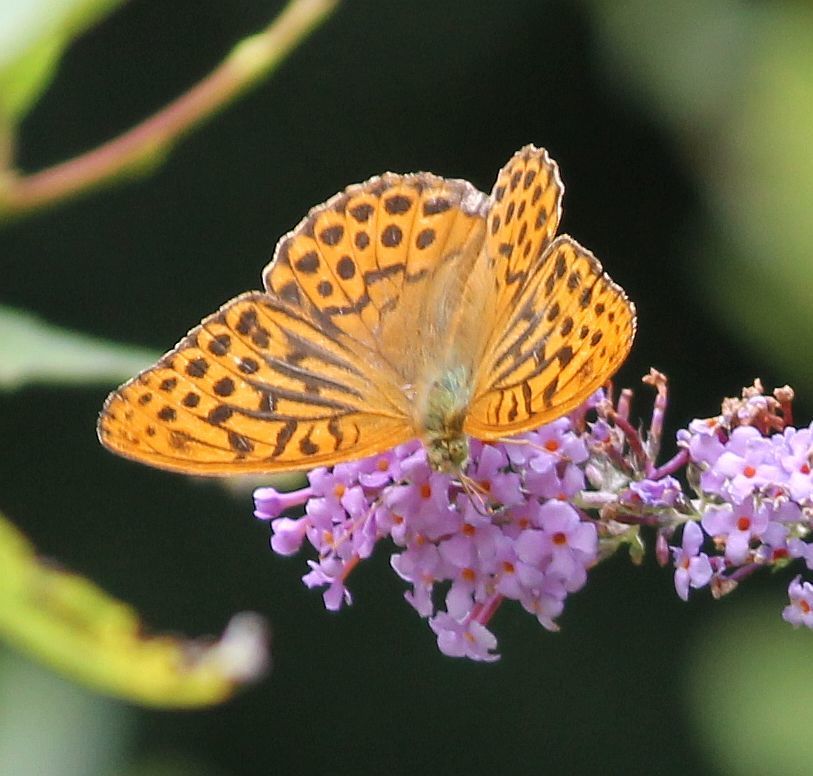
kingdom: Animalia
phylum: Arthropoda
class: Insecta
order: Lepidoptera
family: Nymphalidae
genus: Argynnis
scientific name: Argynnis paphia
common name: Silver-washed fritillary
